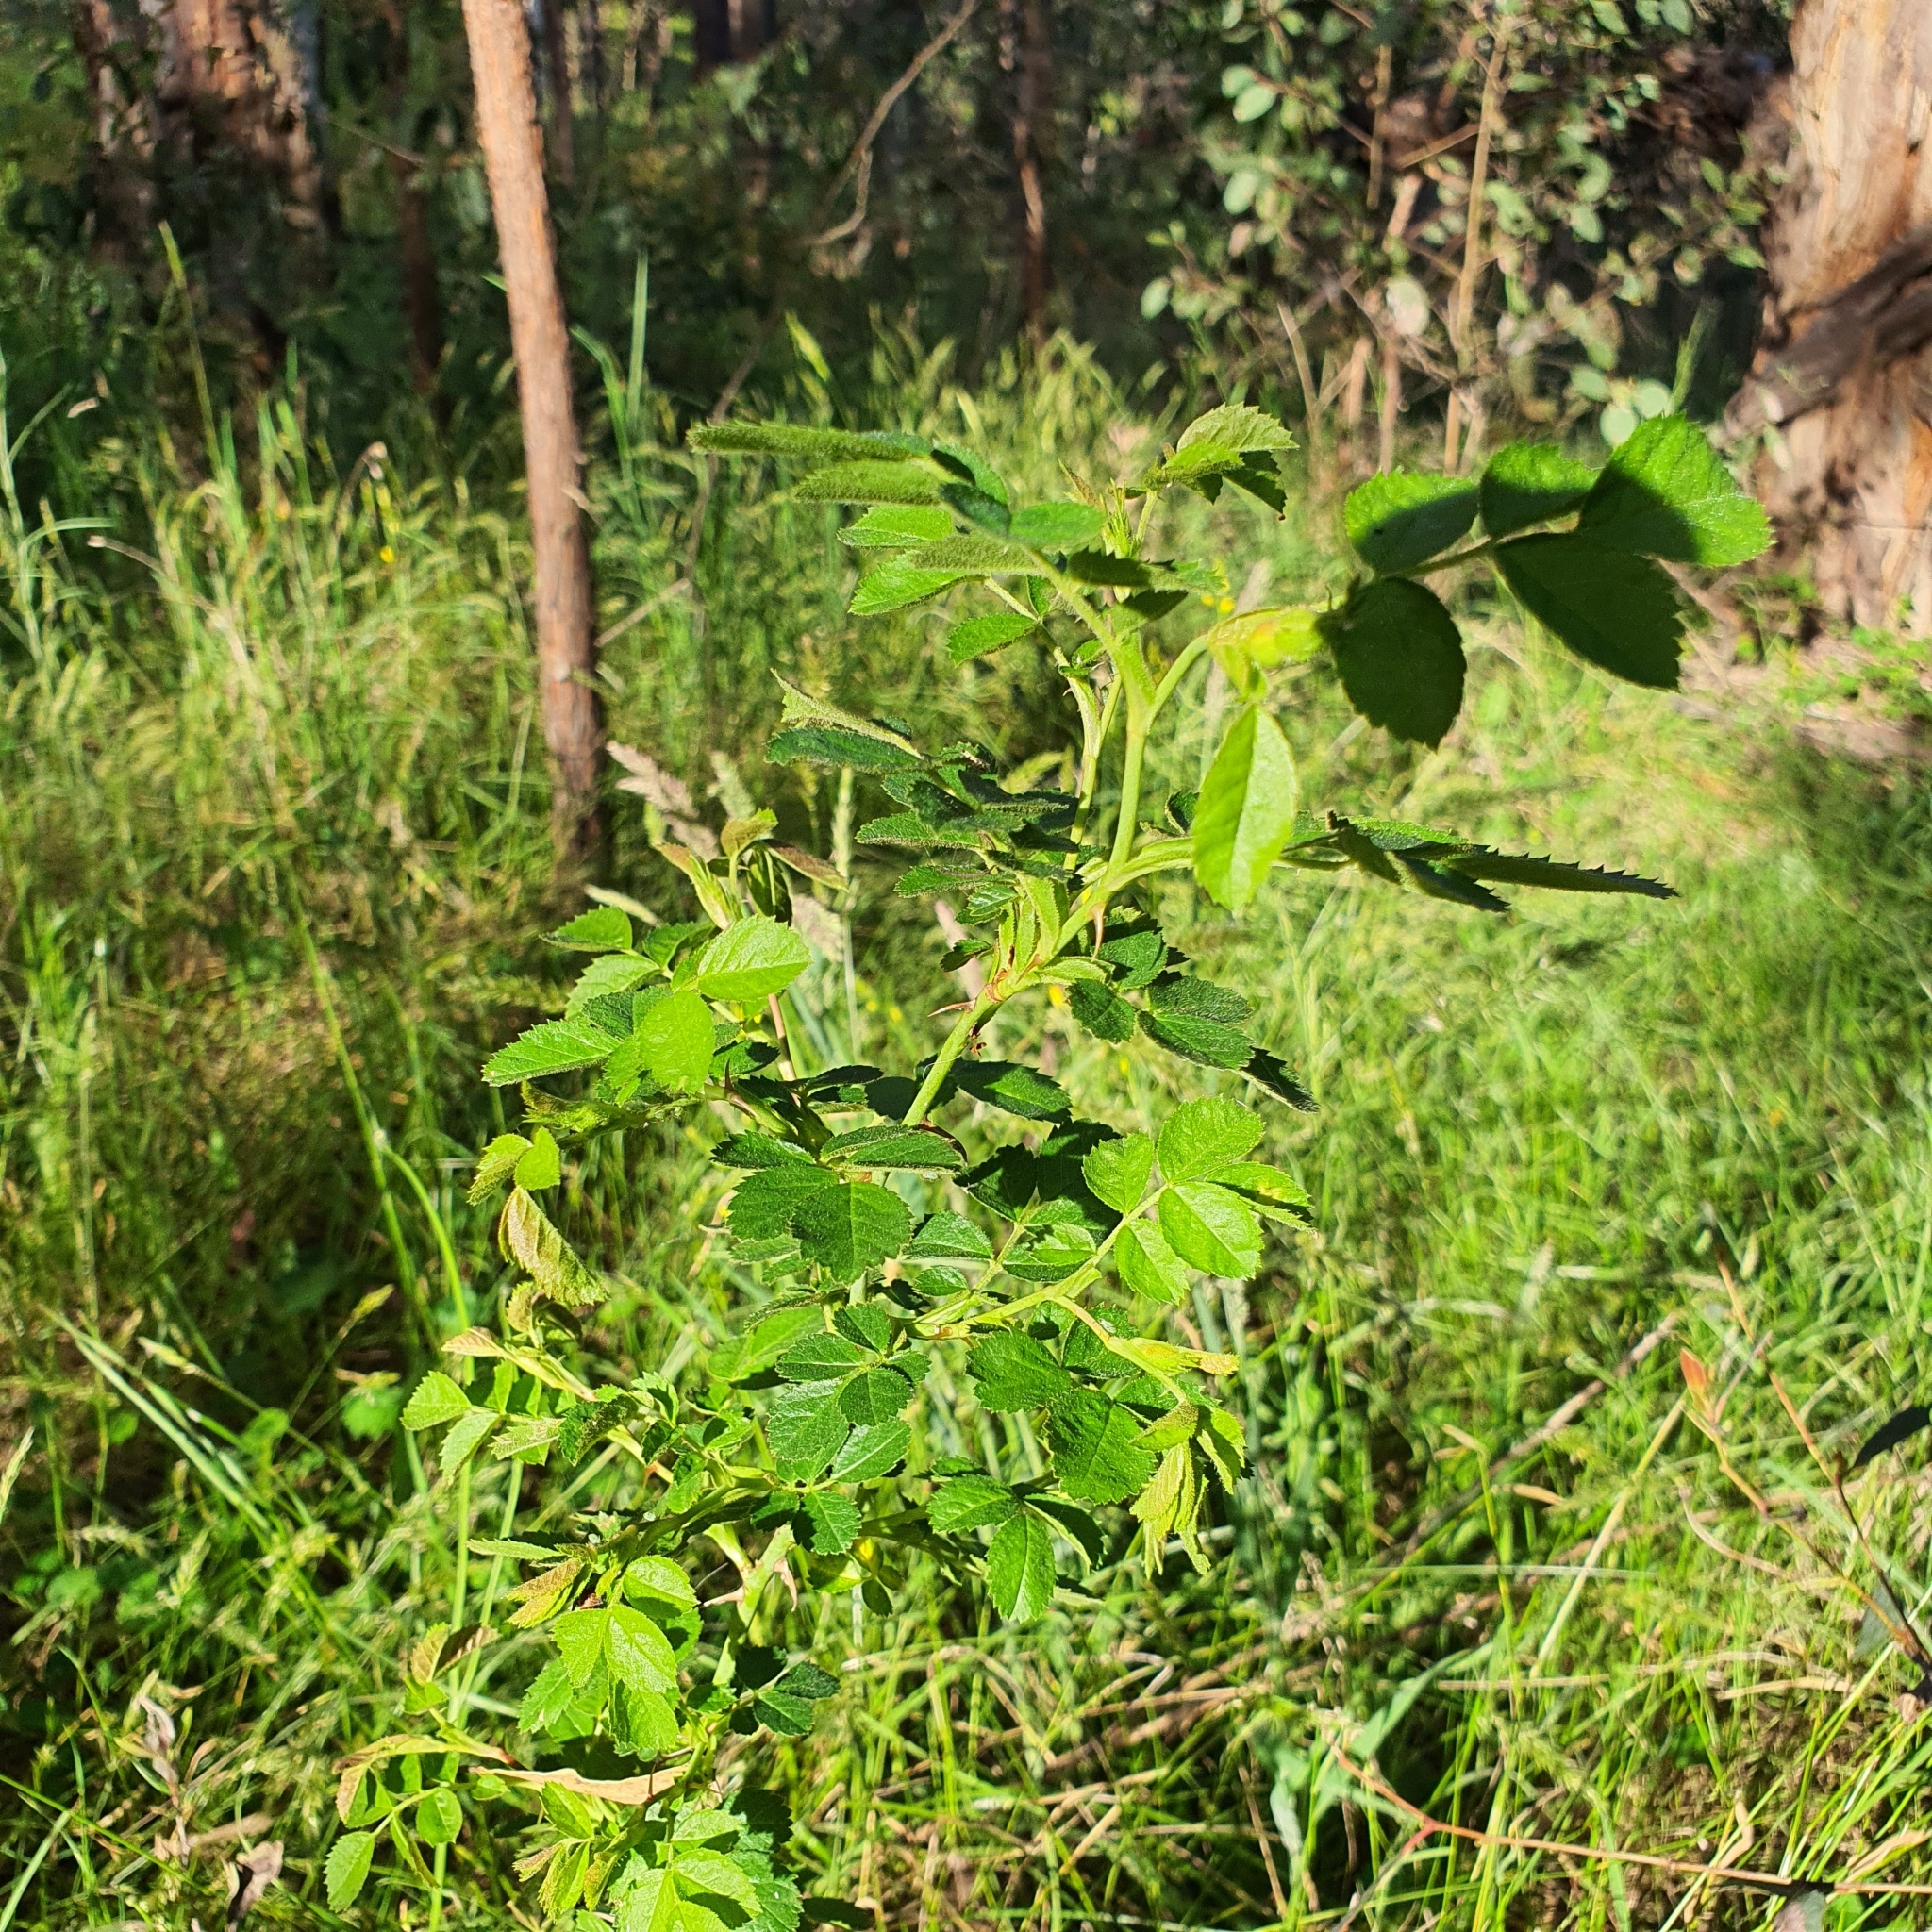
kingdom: Plantae
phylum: Tracheophyta
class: Magnoliopsida
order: Rosales
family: Rosaceae
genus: Rosa
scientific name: Rosa
